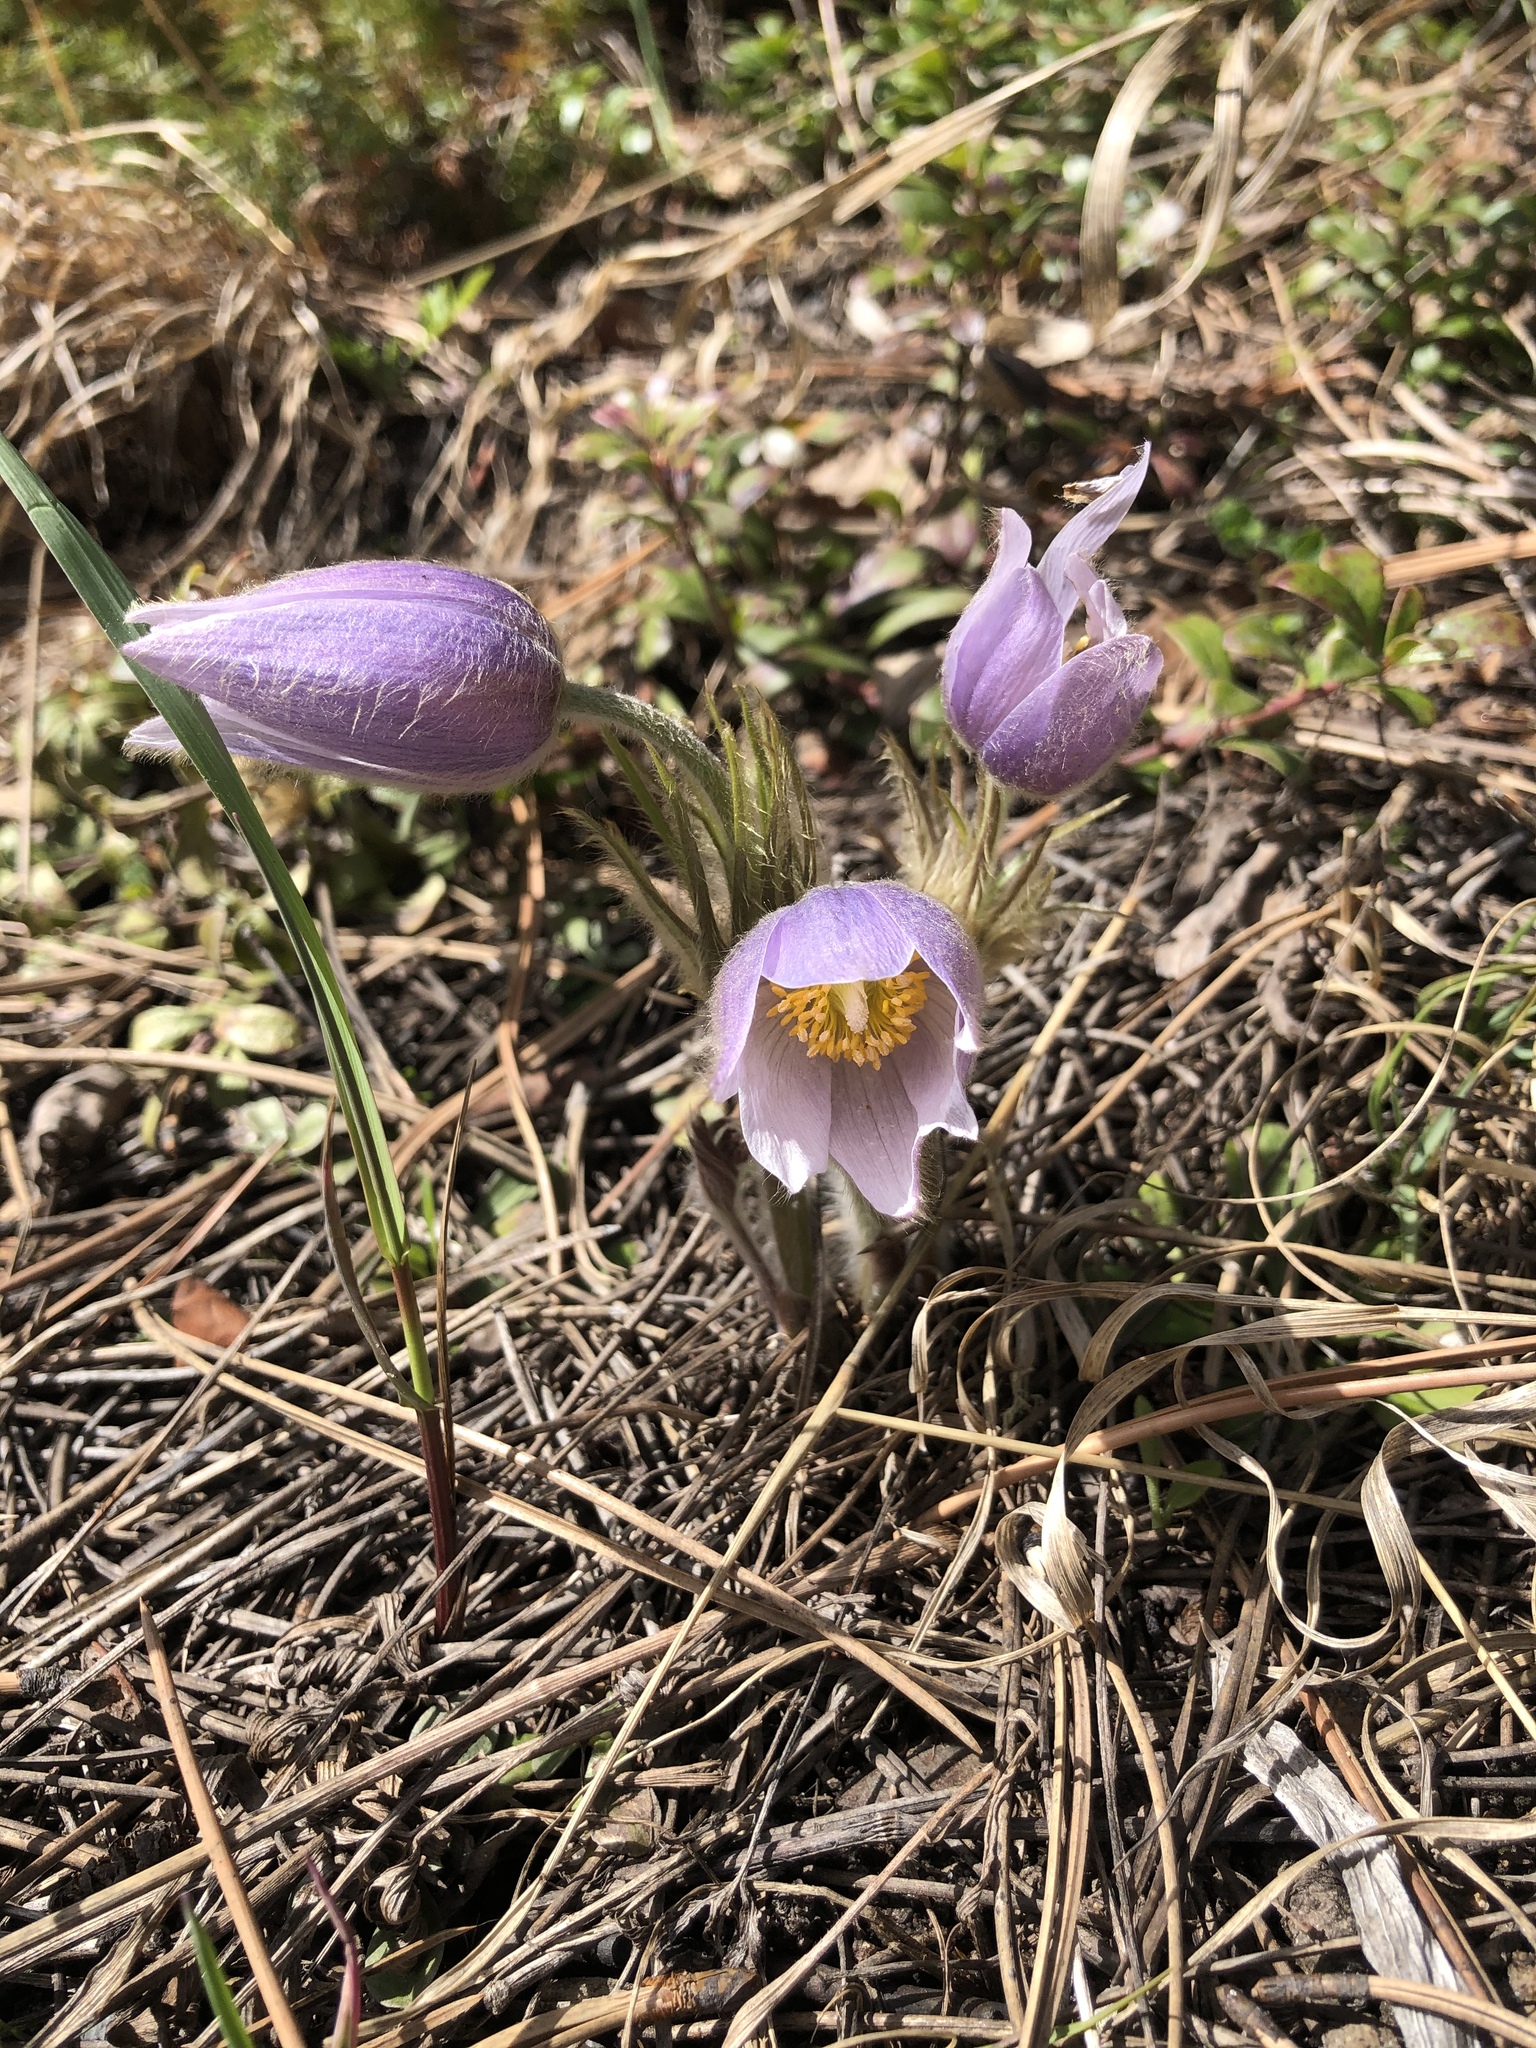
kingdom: Plantae
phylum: Tracheophyta
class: Magnoliopsida
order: Ranunculales
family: Ranunculaceae
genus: Pulsatilla
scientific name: Pulsatilla nuttalliana
